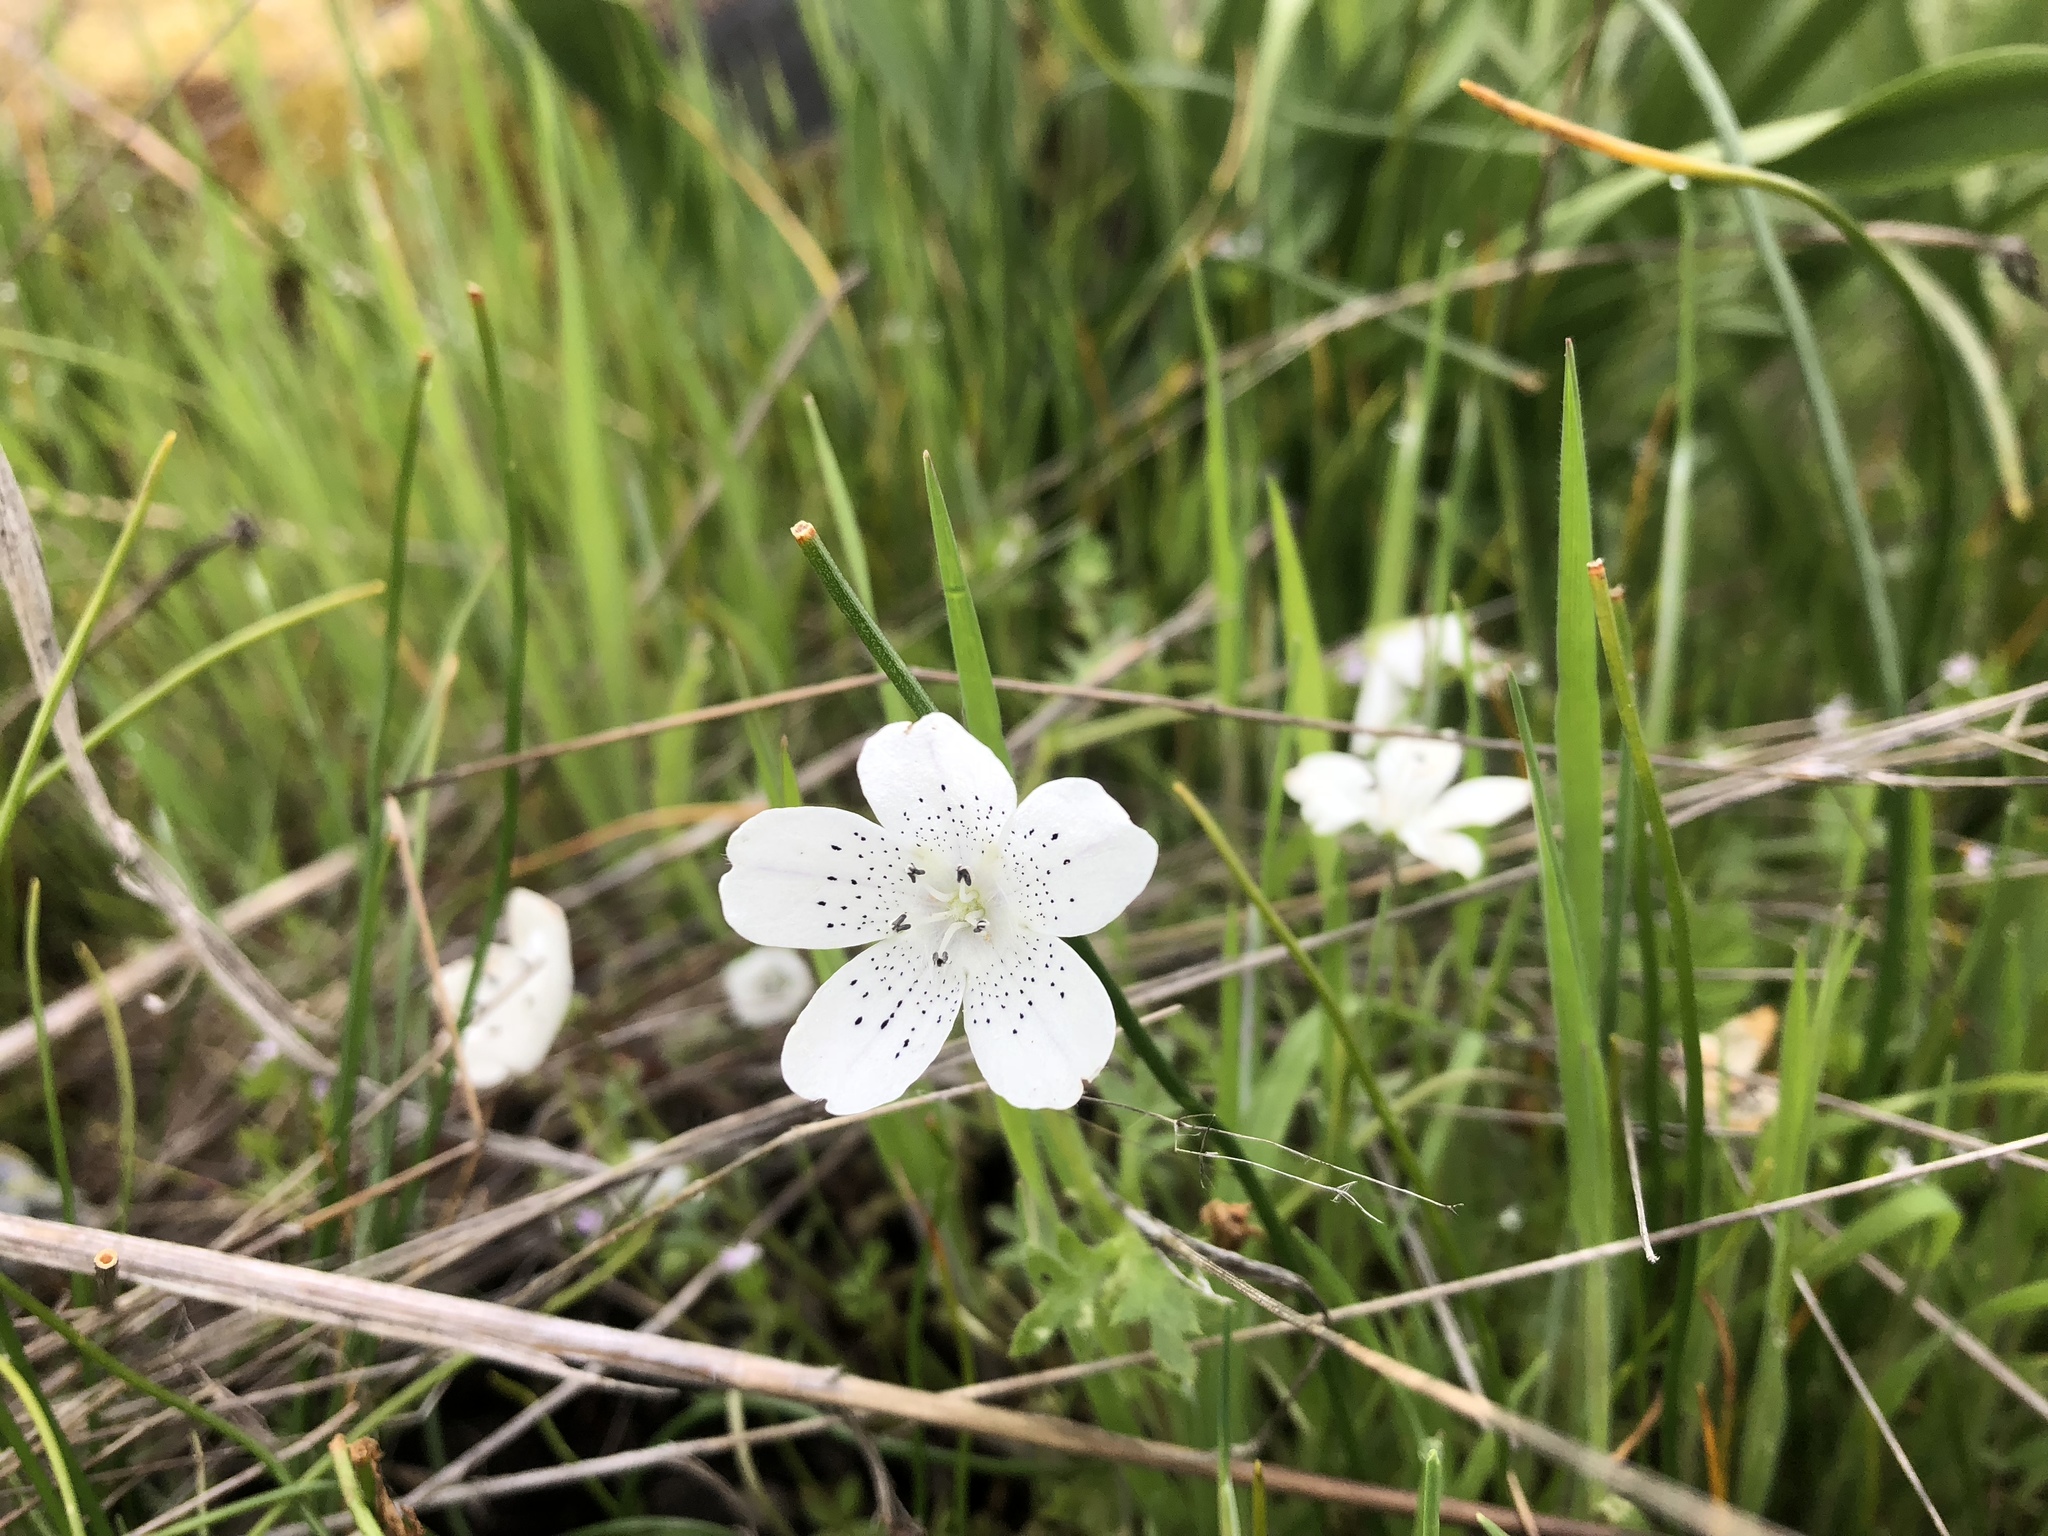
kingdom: Plantae
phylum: Tracheophyta
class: Magnoliopsida
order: Boraginales
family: Hydrophyllaceae
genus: Nemophila
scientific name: Nemophila menziesii
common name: Baby's-blue-eyes
